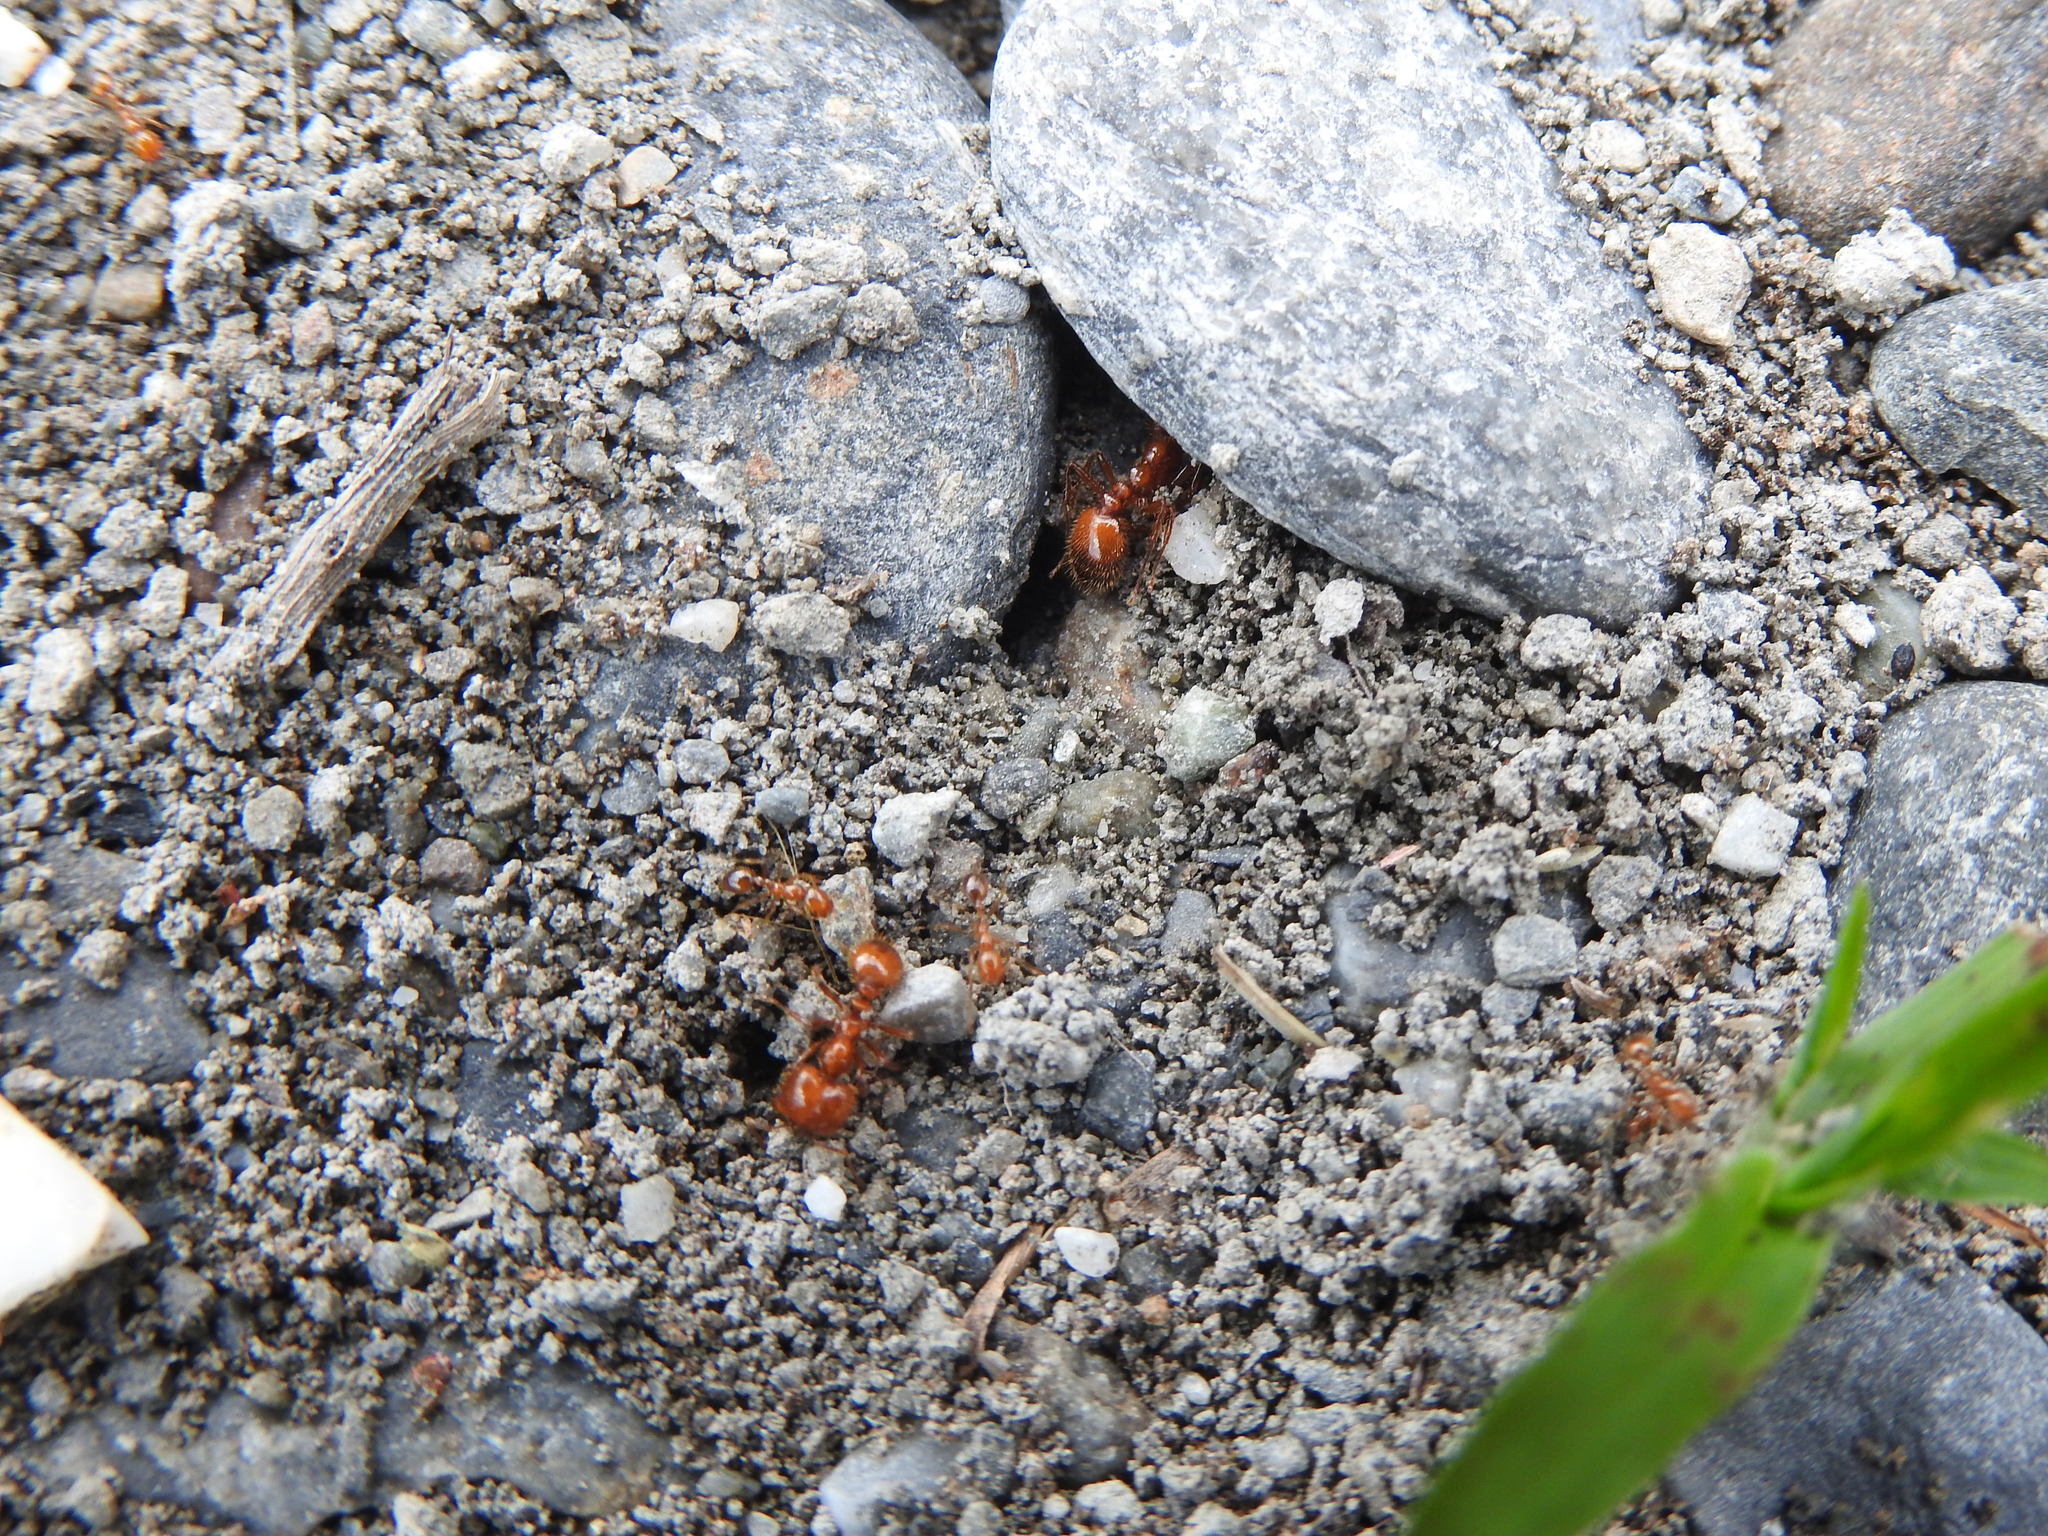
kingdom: Animalia
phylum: Arthropoda
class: Insecta
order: Hymenoptera
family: Formicidae
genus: Solenopsis
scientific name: Solenopsis geminata
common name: Tropical fire ant
